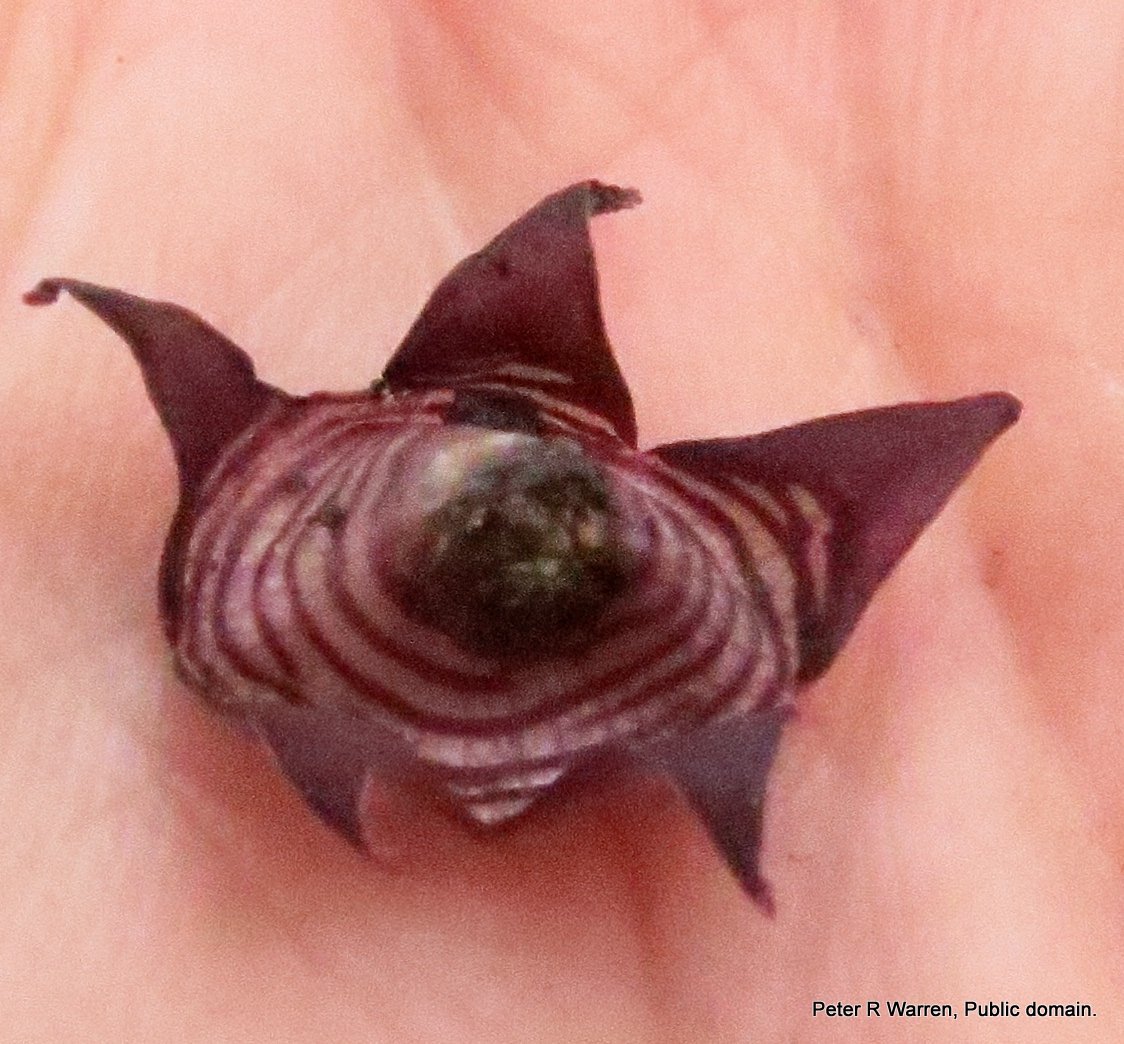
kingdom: Plantae
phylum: Tracheophyta
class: Magnoliopsida
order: Gentianales
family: Apocynaceae
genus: Ceropegia
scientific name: Ceropegia modestantha
